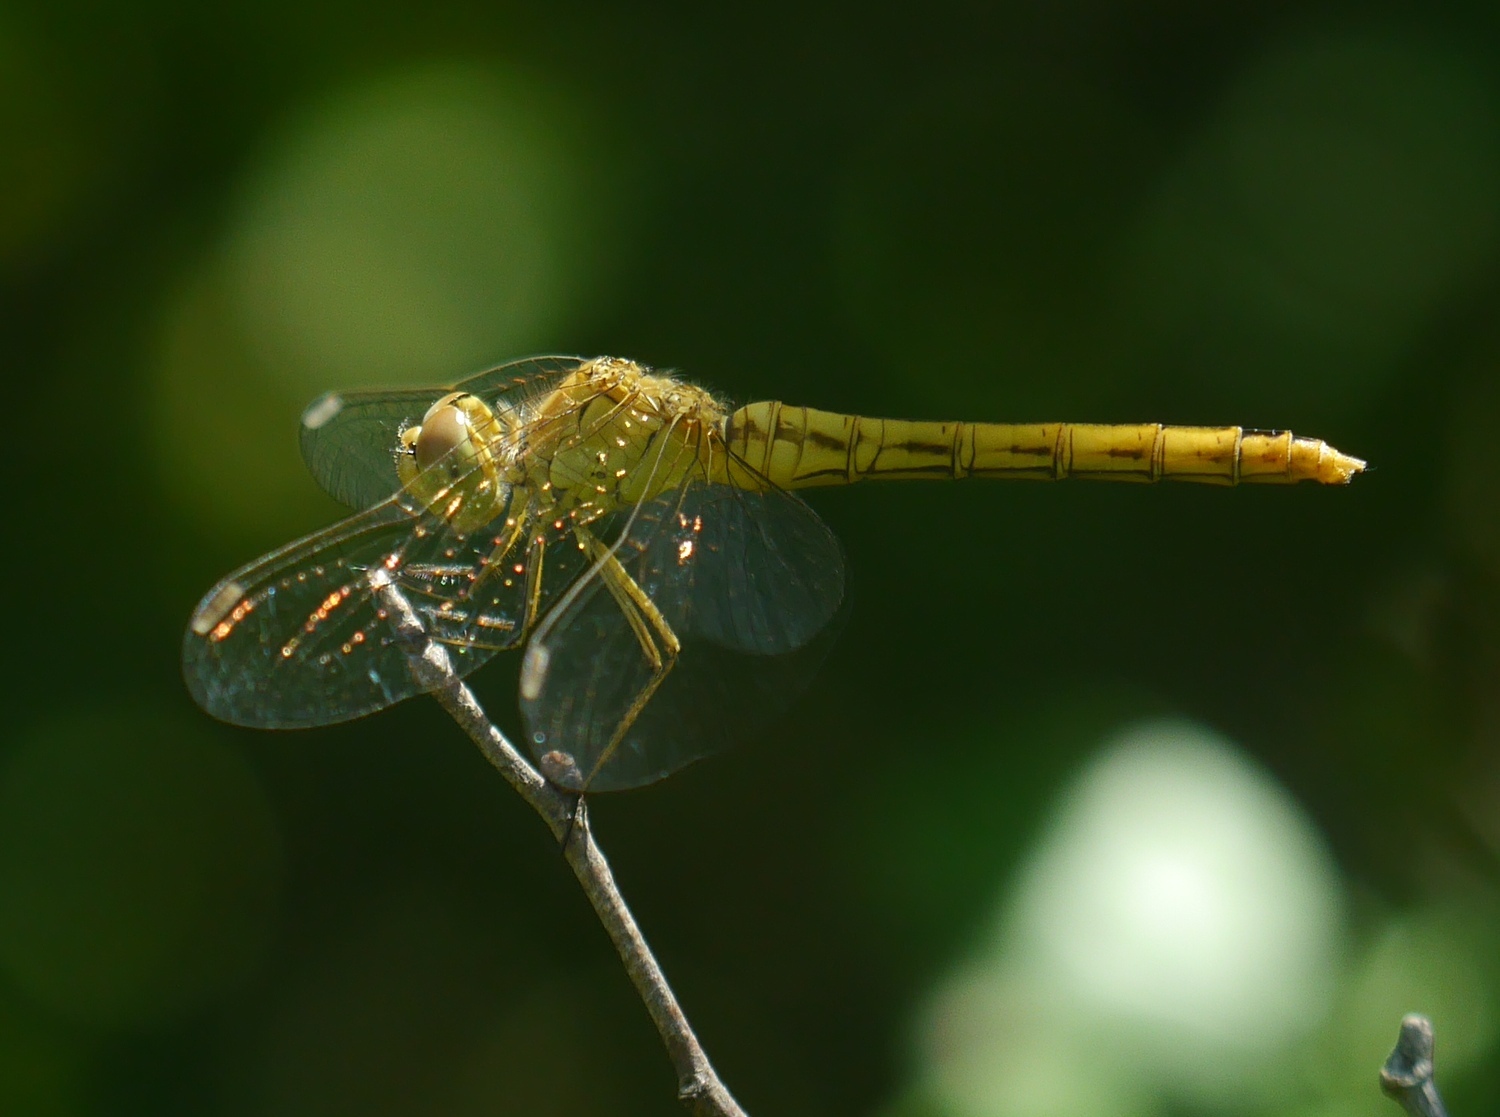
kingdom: Animalia
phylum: Arthropoda
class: Insecta
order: Odonata
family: Libellulidae
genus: Sympetrum
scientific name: Sympetrum meridionale
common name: Southern darter
